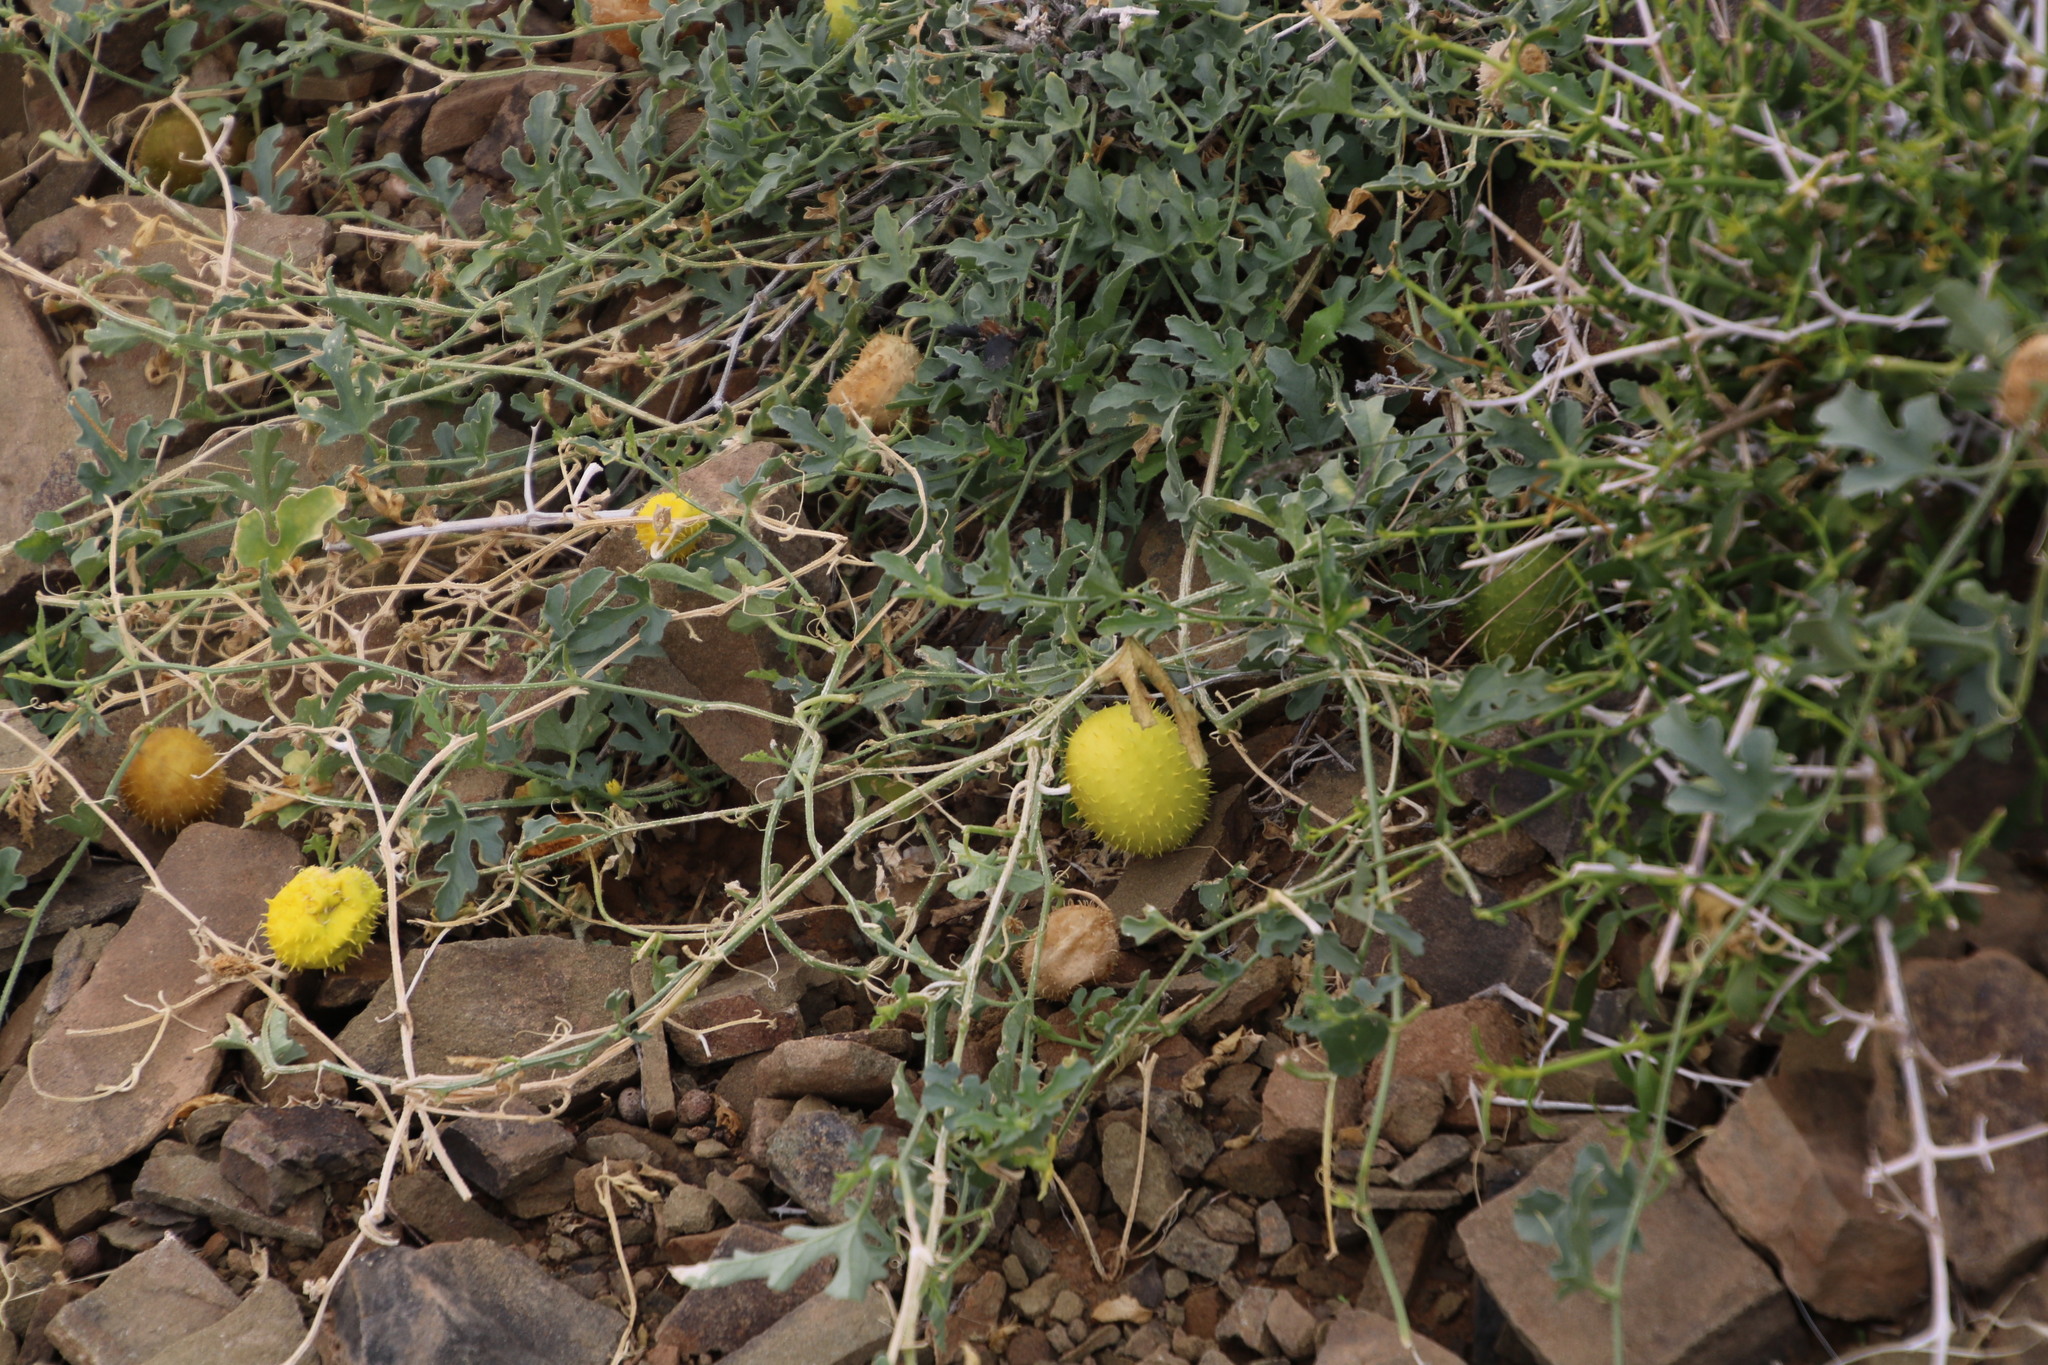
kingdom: Plantae
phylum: Tracheophyta
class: Magnoliopsida
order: Cucurbitales
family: Cucurbitaceae
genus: Cucumis
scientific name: Cucumis zeyheri
